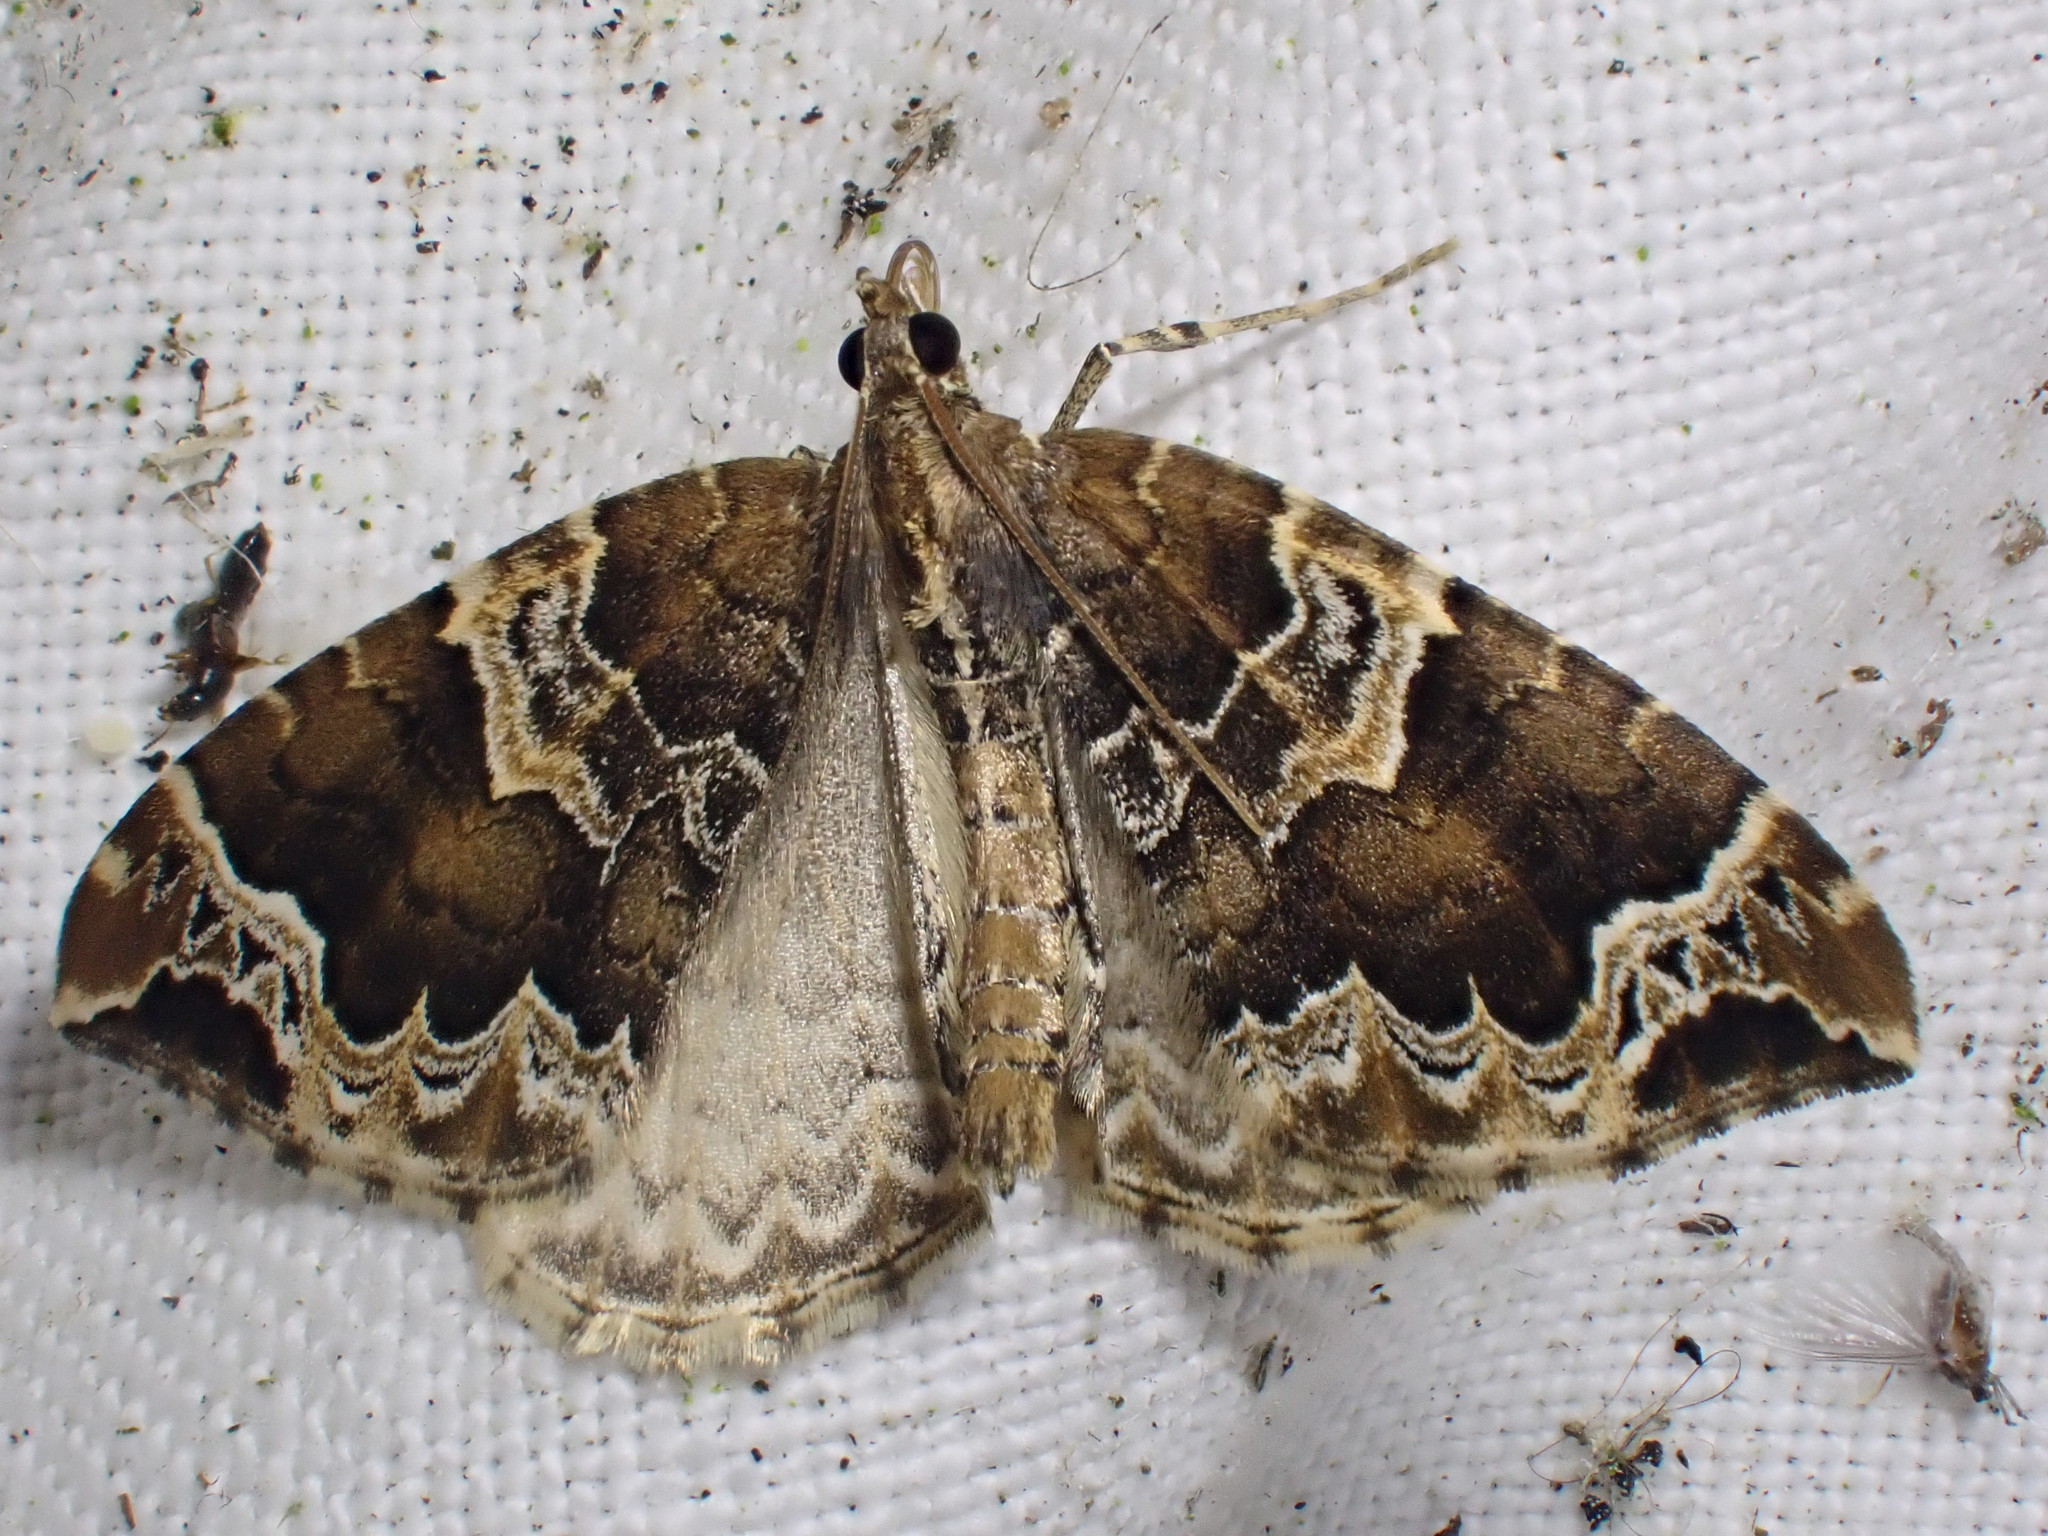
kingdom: Animalia
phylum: Arthropoda
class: Insecta
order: Lepidoptera
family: Geometridae
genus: Eulithis
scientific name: Eulithis prunata
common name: Phoenix
